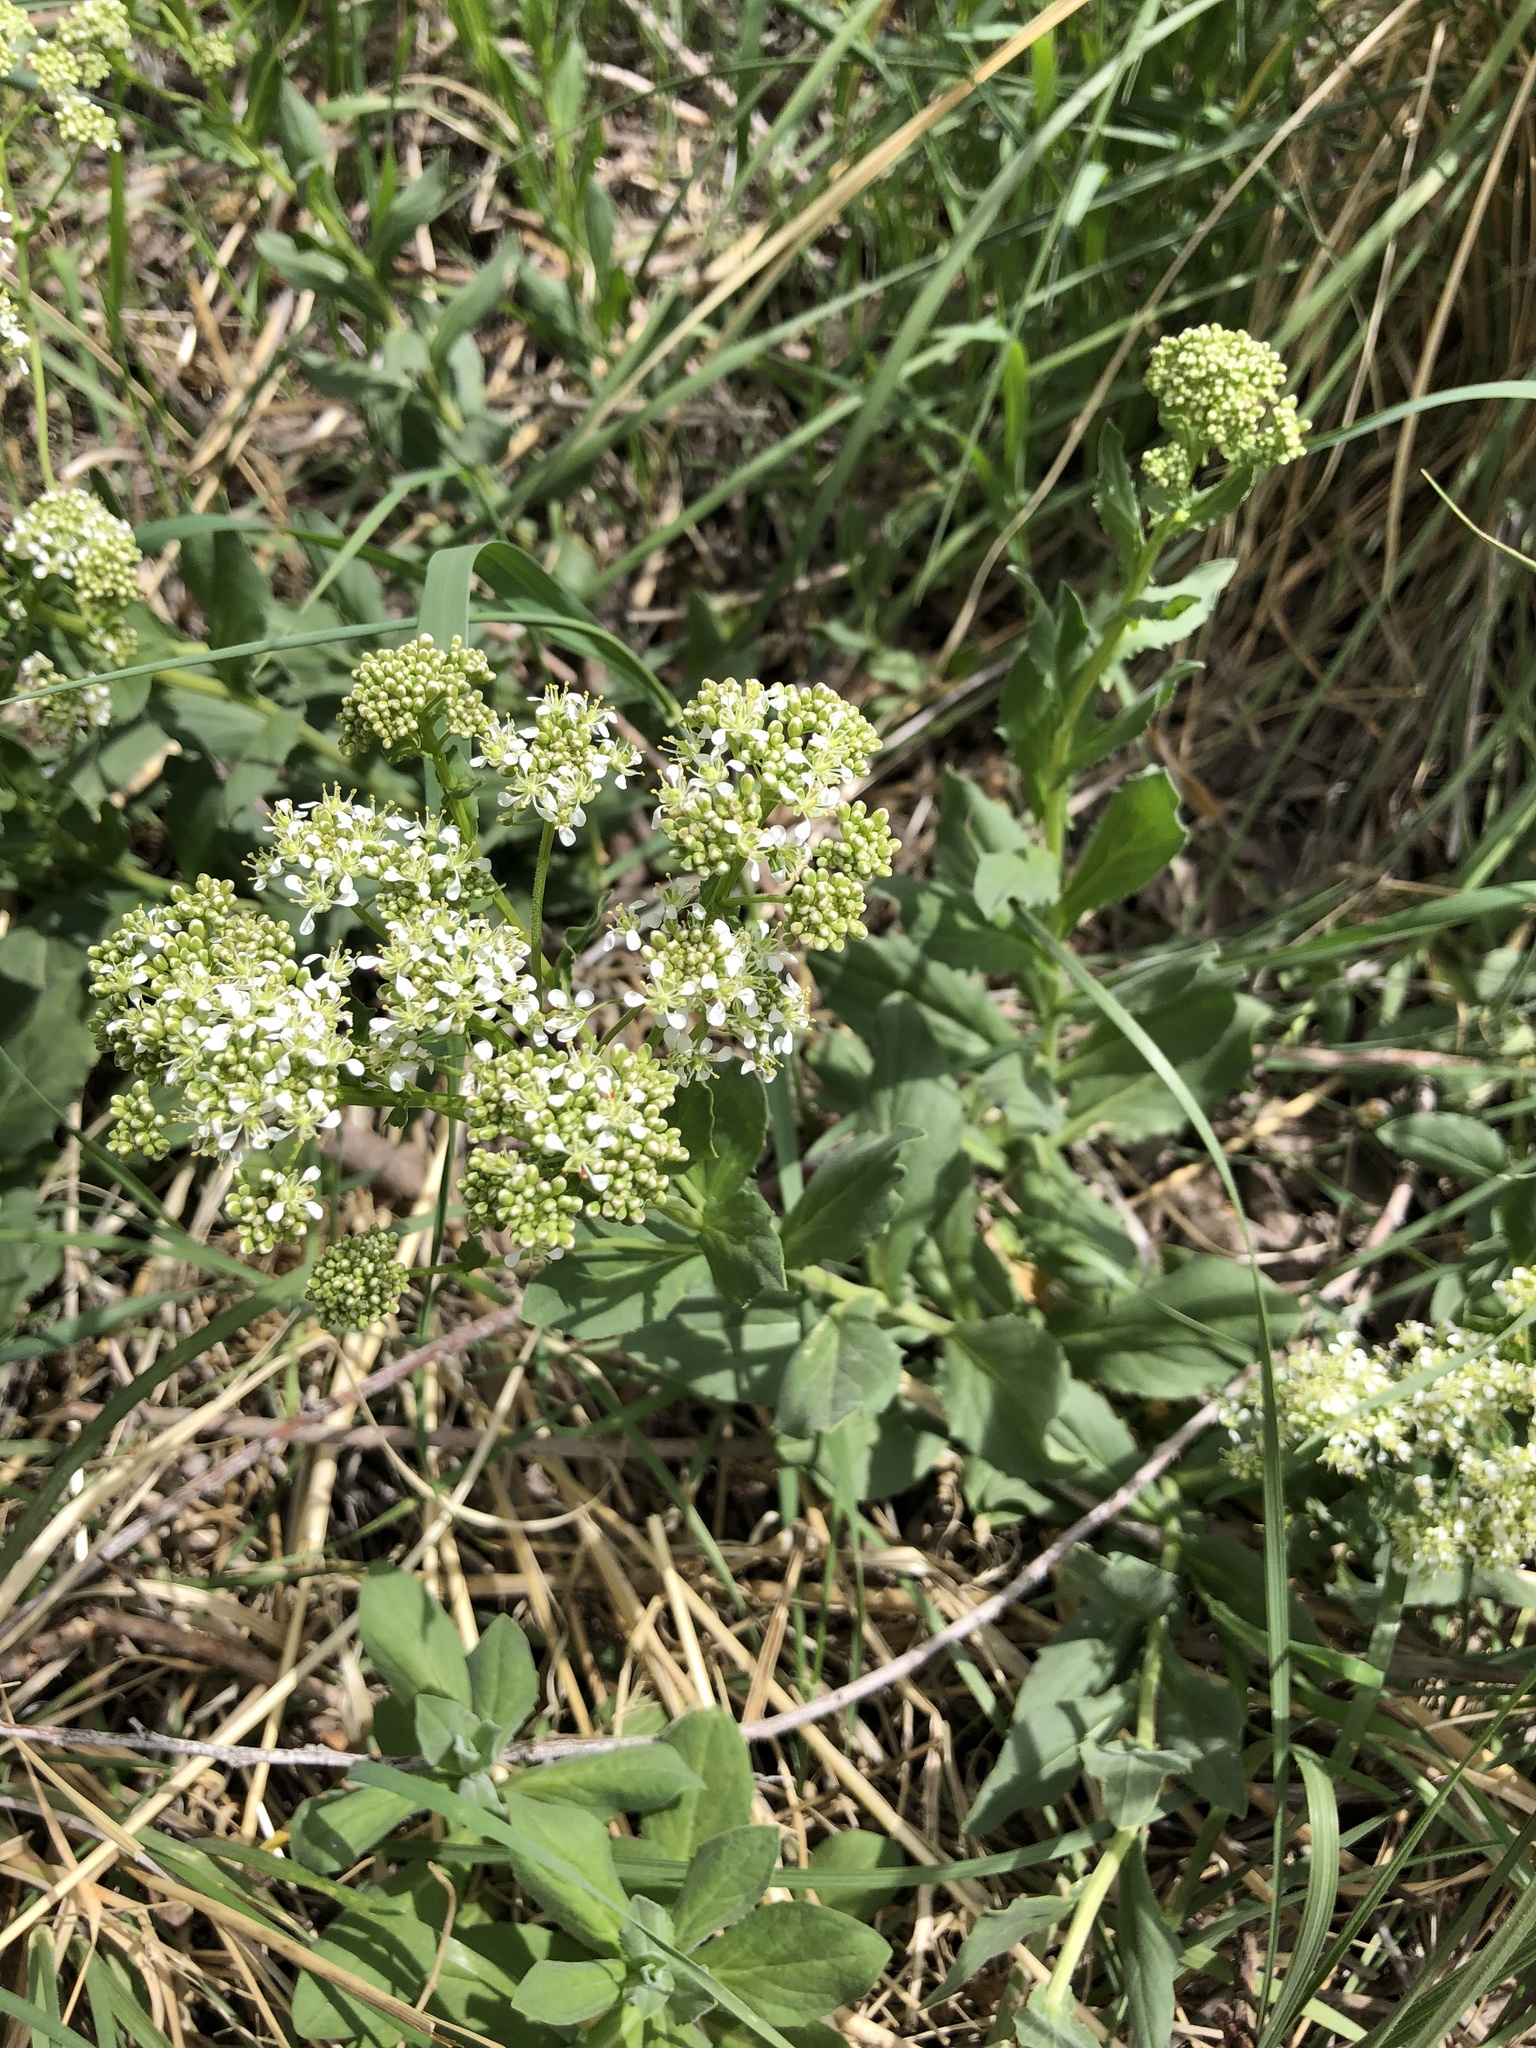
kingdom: Plantae
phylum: Tracheophyta
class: Magnoliopsida
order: Brassicales
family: Brassicaceae
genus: Lepidium
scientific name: Lepidium draba
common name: Hoary cress
